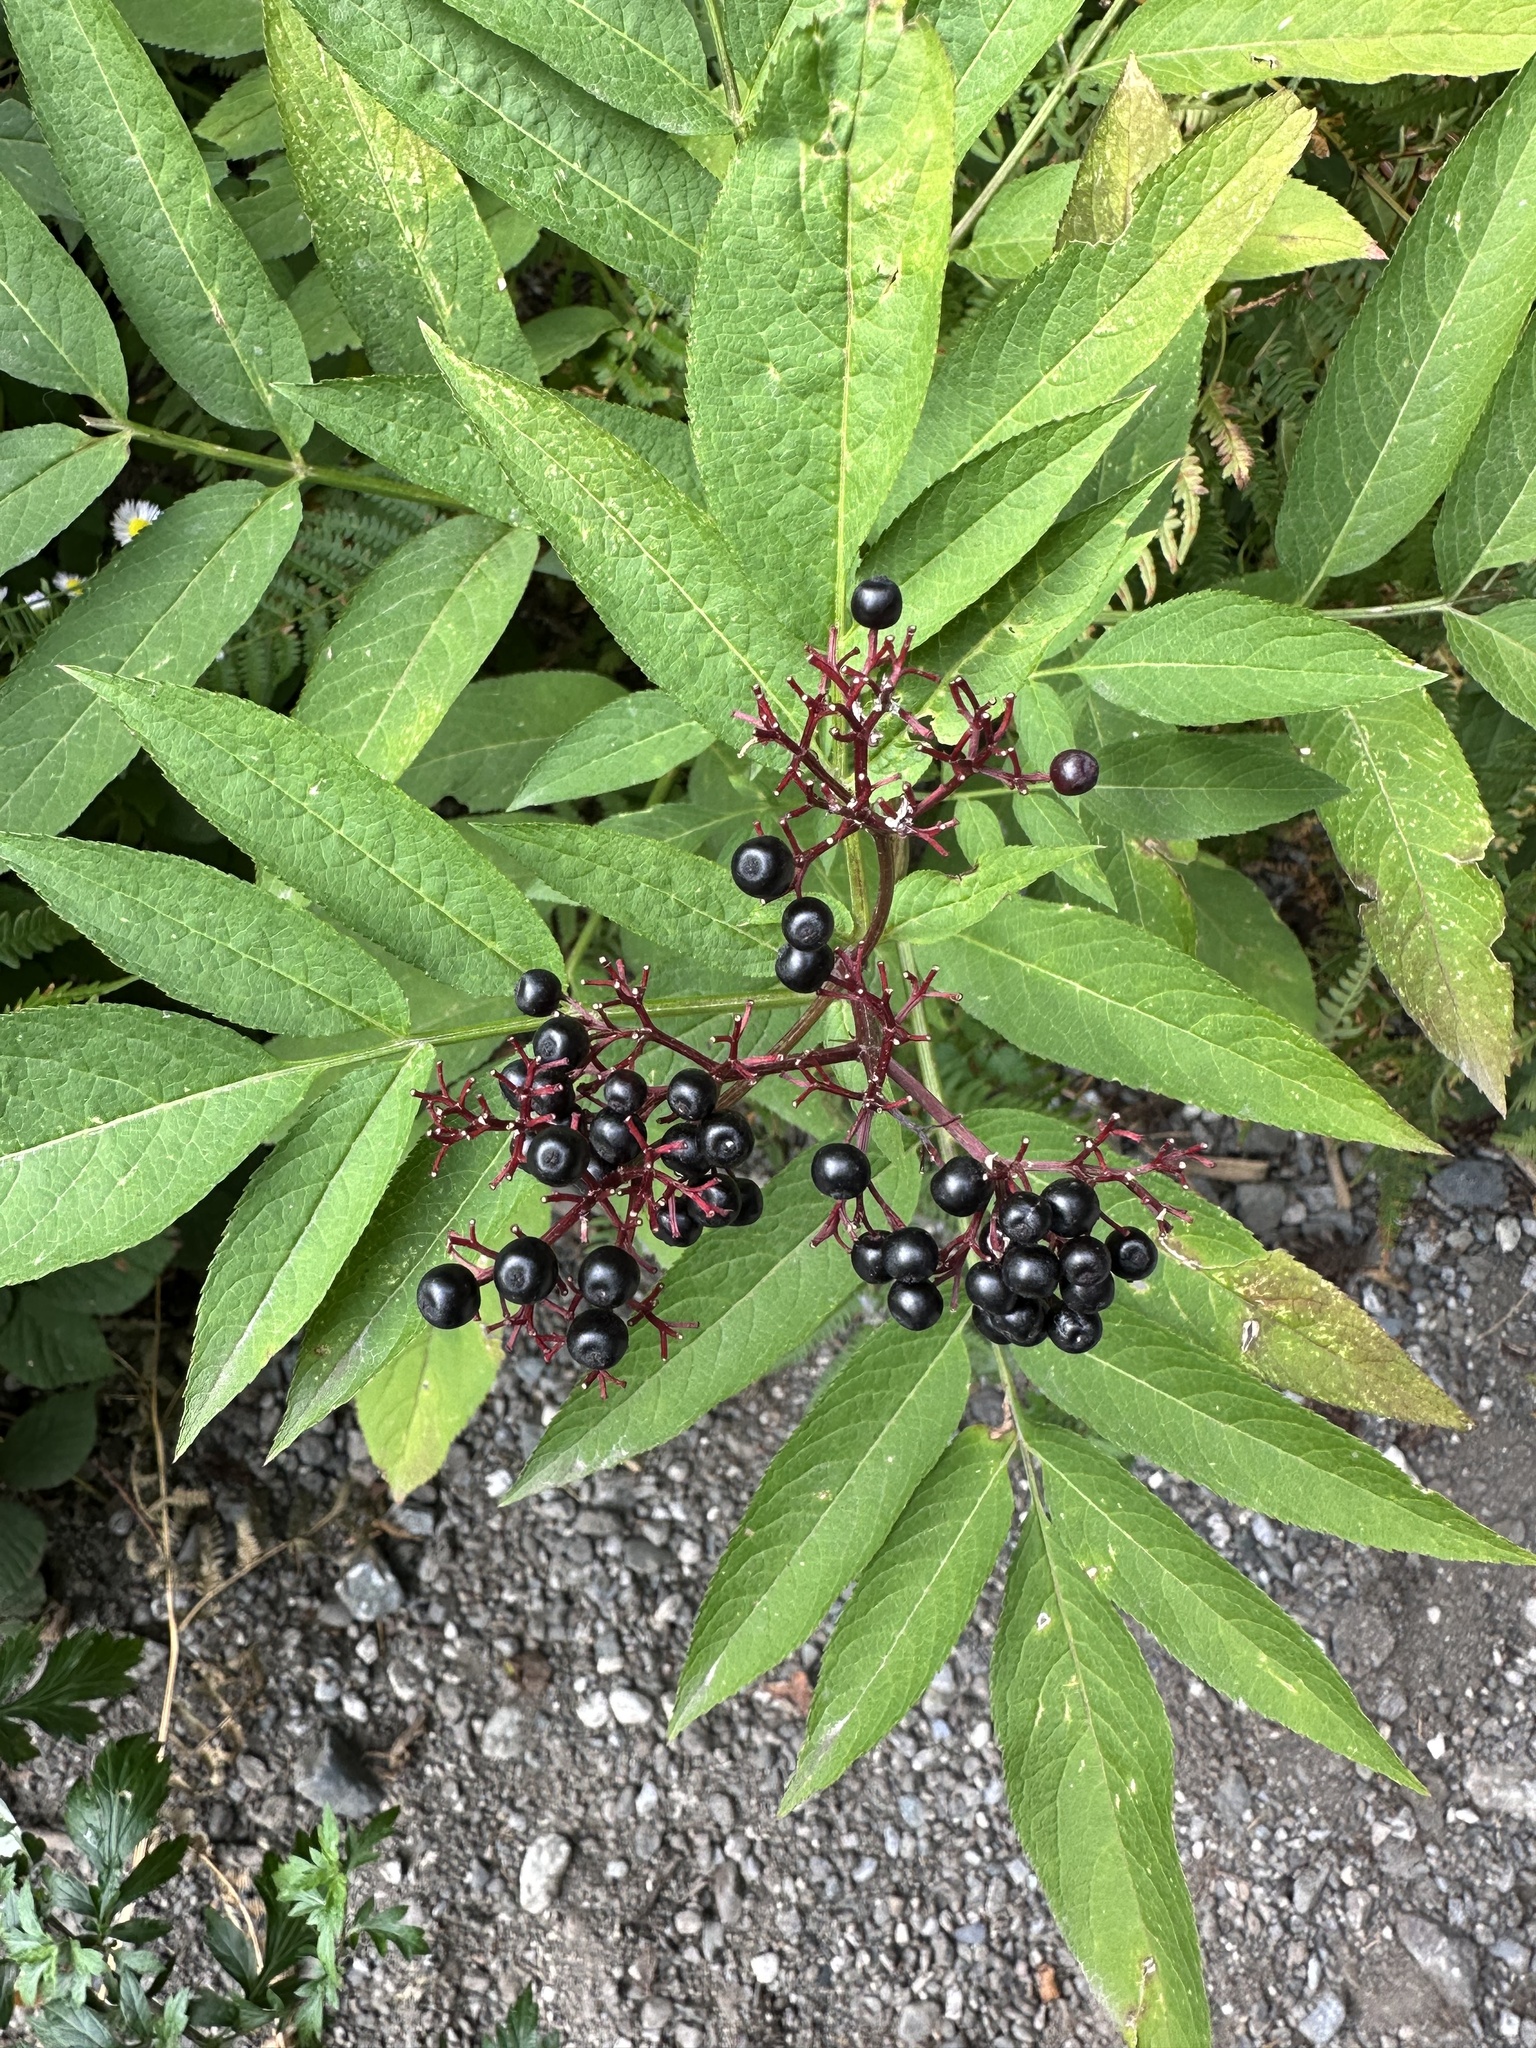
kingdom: Plantae
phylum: Tracheophyta
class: Magnoliopsida
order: Dipsacales
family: Viburnaceae
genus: Sambucus
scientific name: Sambucus ebulus
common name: Dwarf elder
